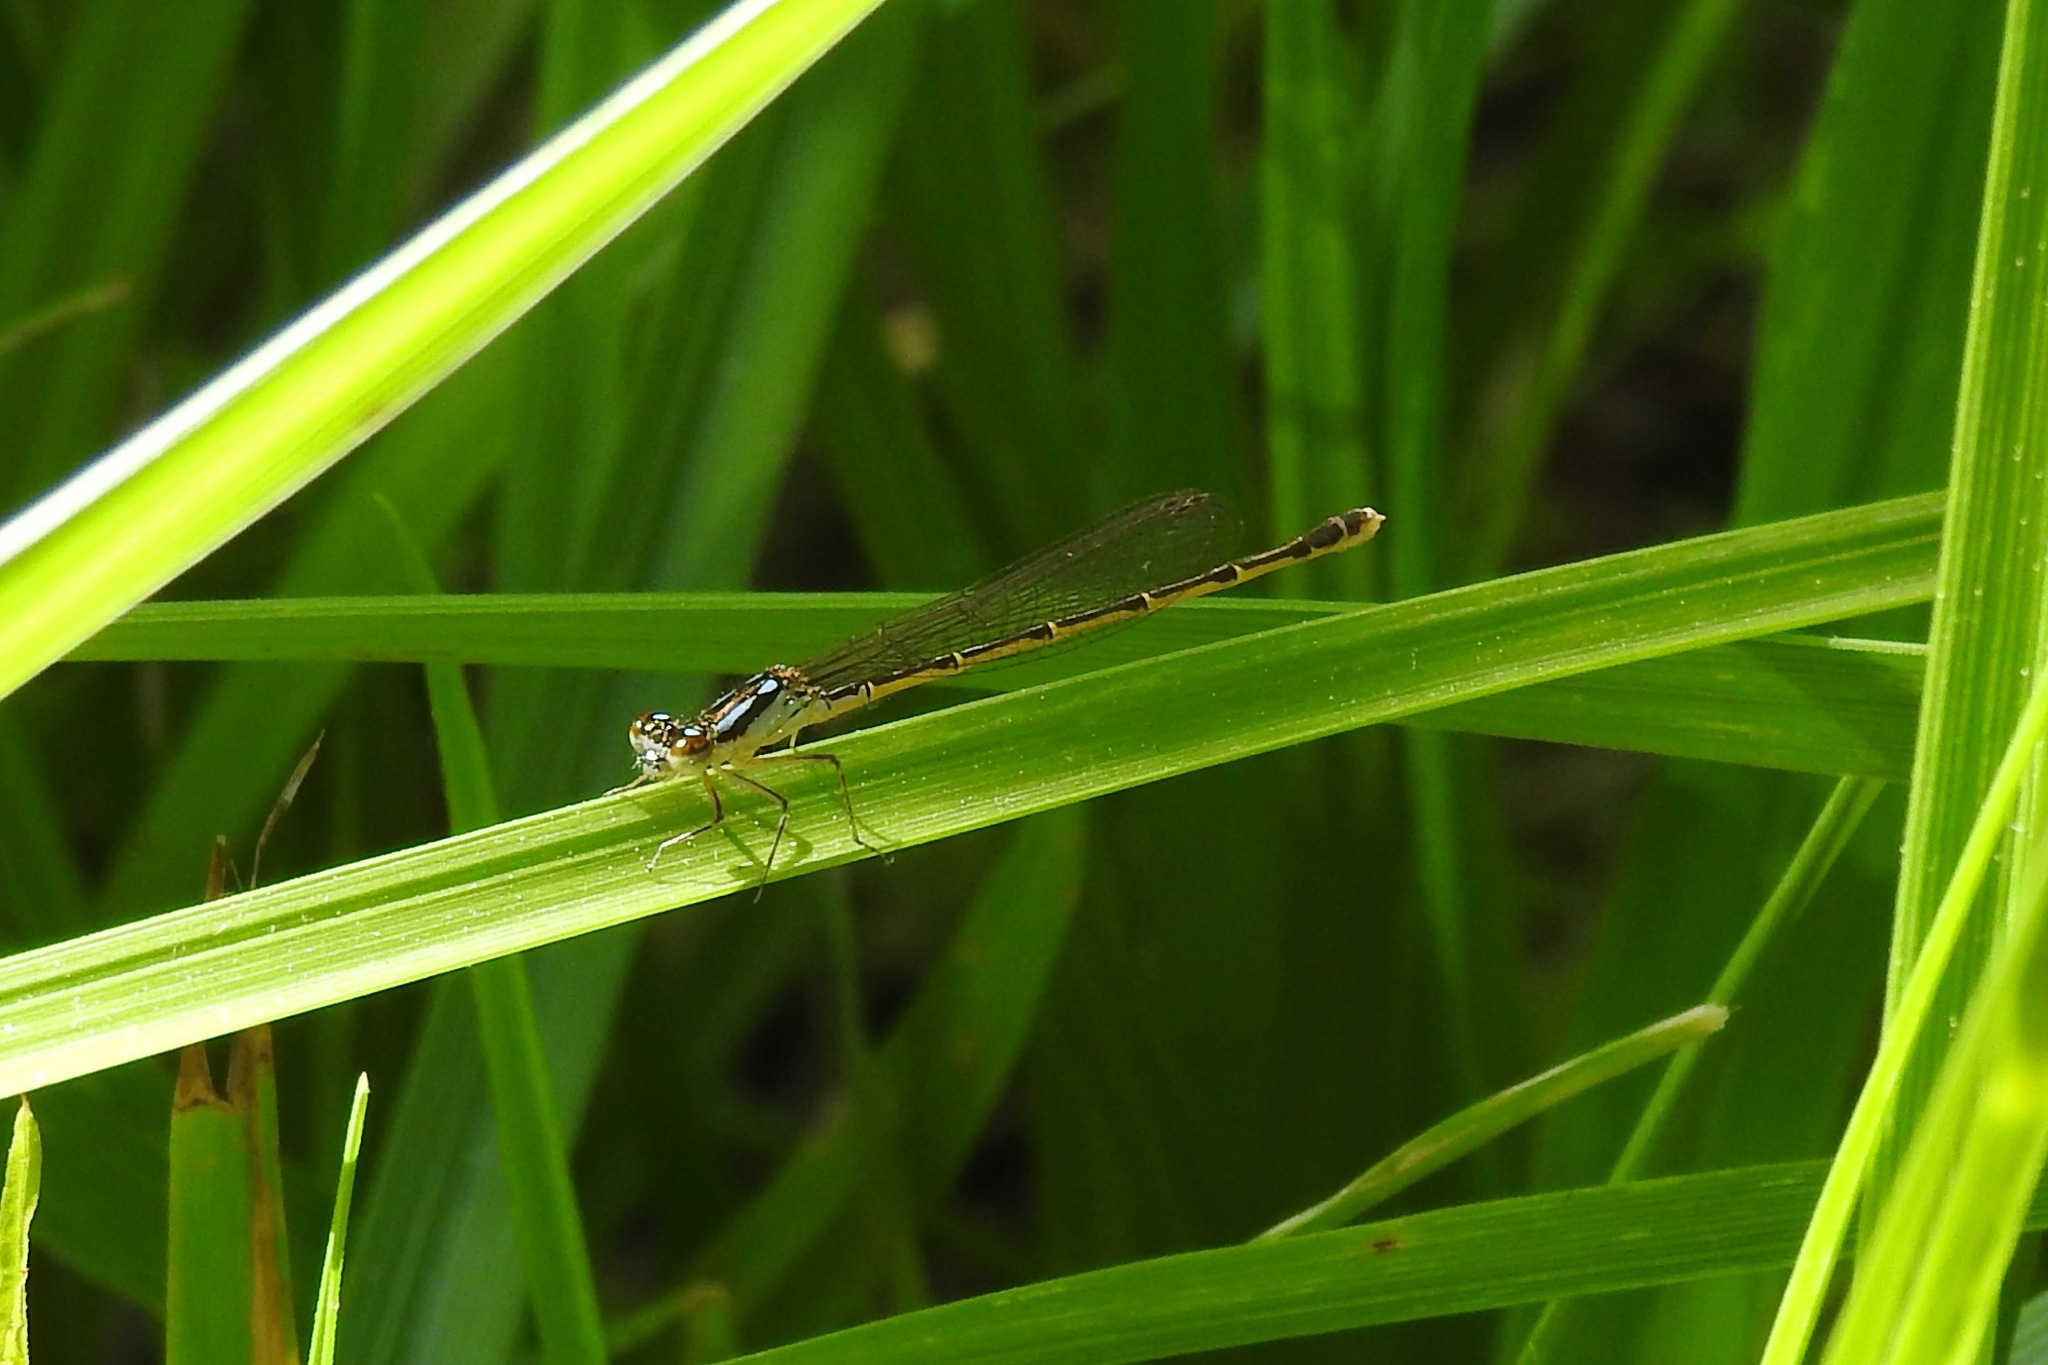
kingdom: Animalia
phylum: Arthropoda
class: Insecta
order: Odonata
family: Coenagrionidae
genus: Ischnura
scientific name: Ischnura posita
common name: Fragile forktail
